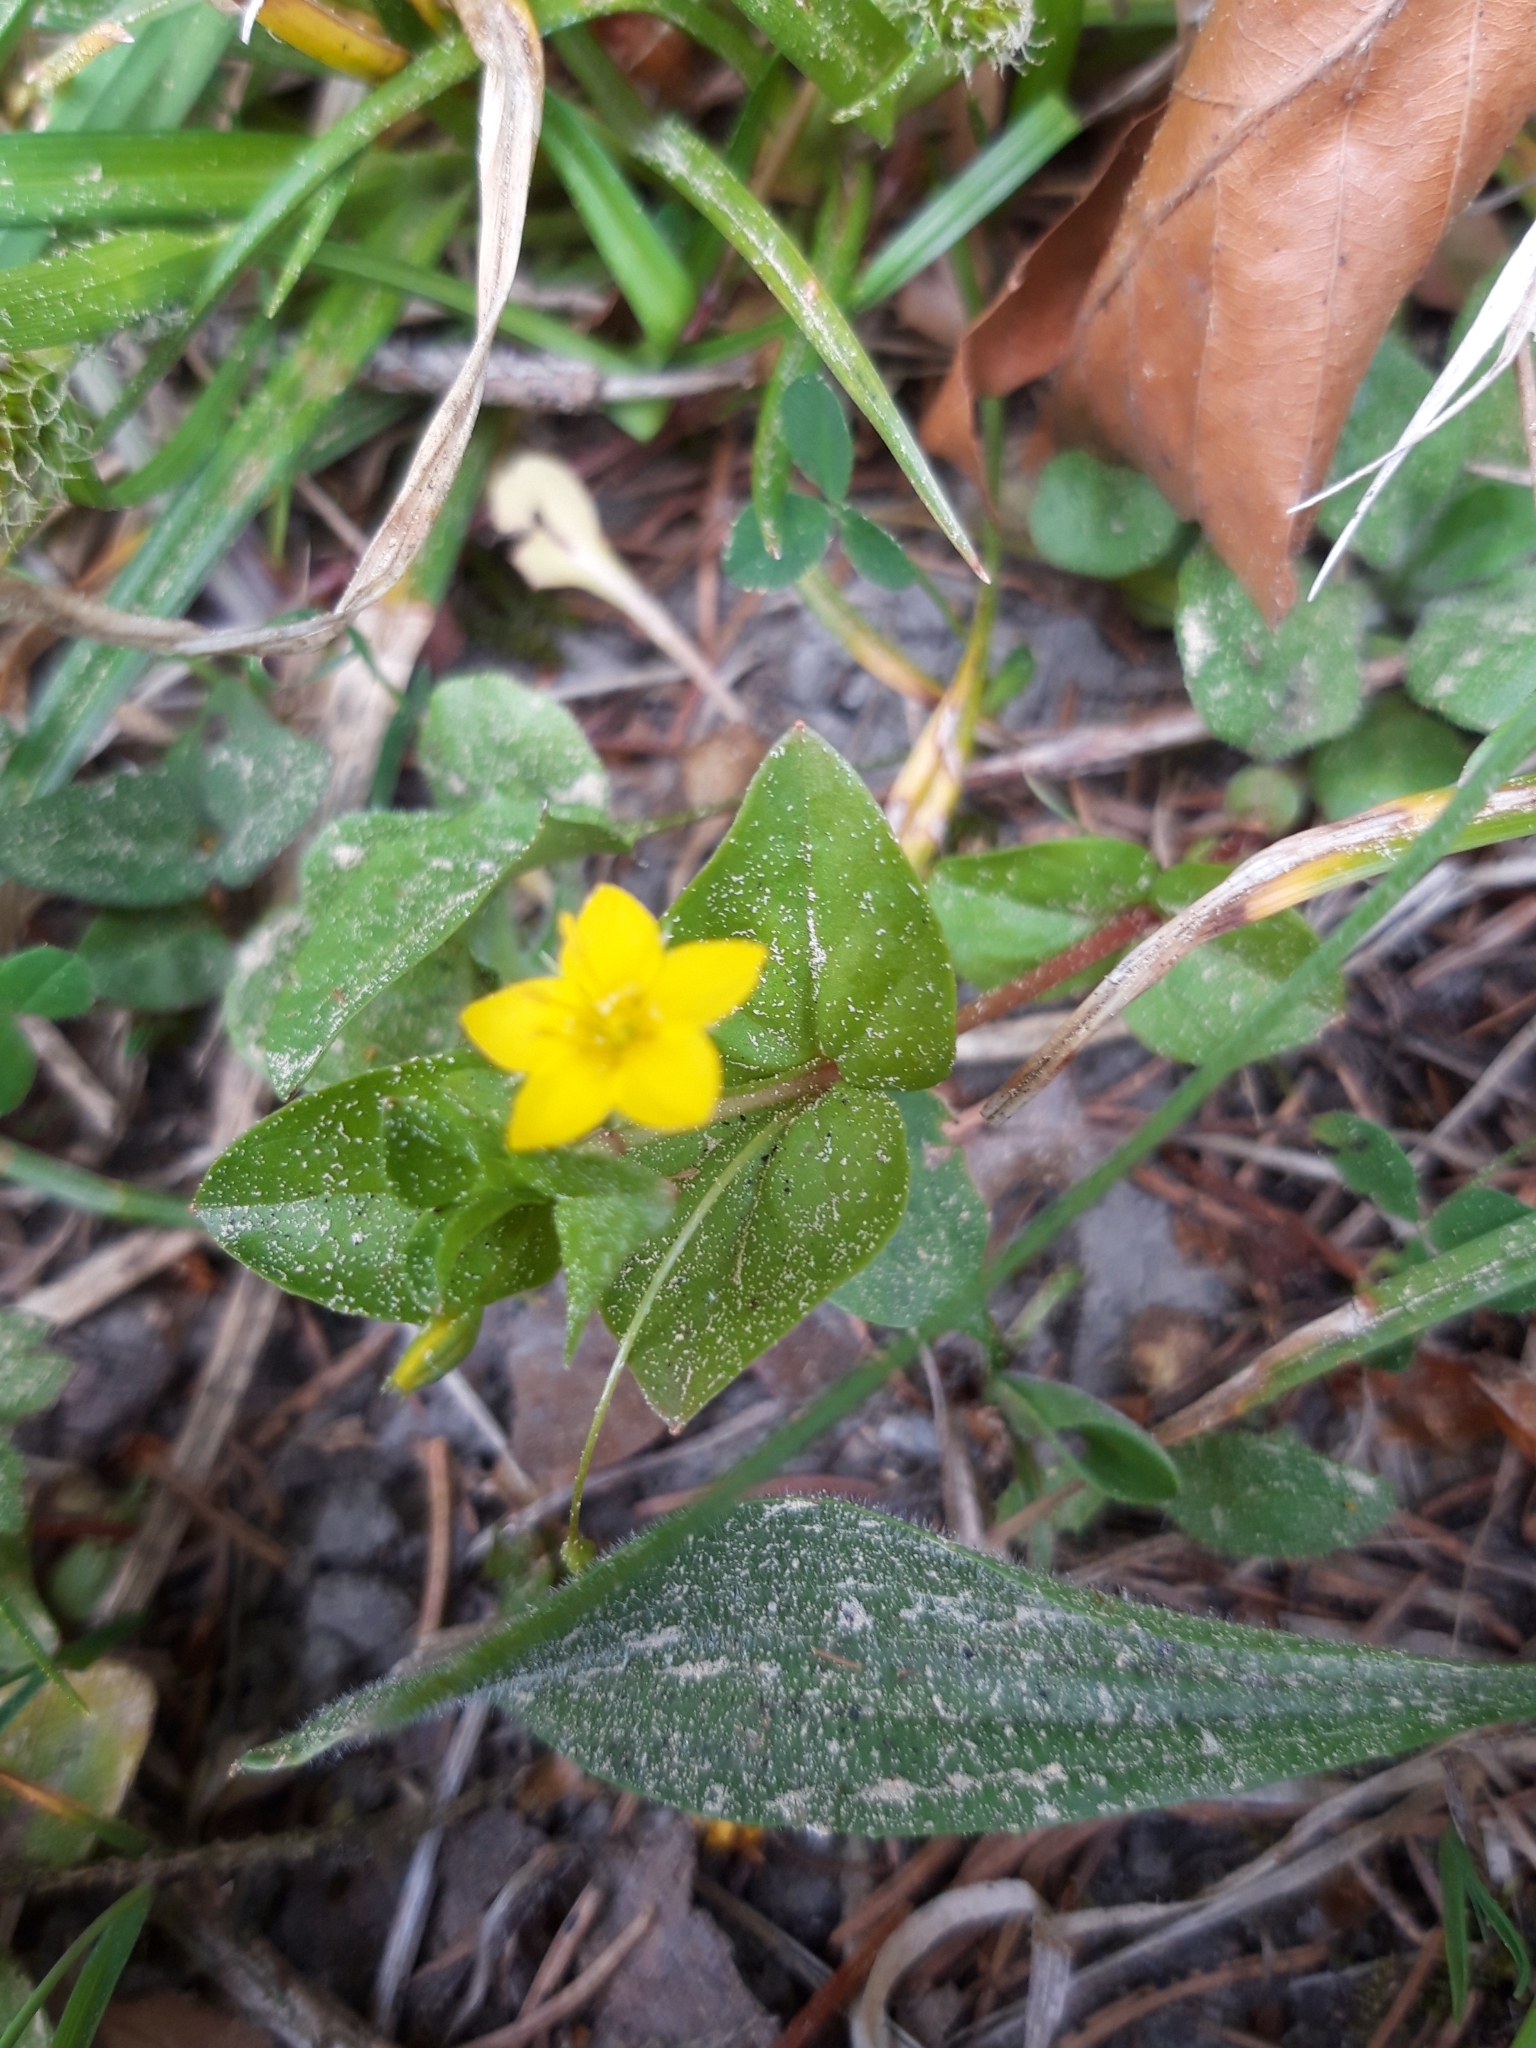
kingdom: Plantae
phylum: Tracheophyta
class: Magnoliopsida
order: Ericales
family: Primulaceae
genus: Lysimachia
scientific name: Lysimachia nemorum
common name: Yellow pimpernel
